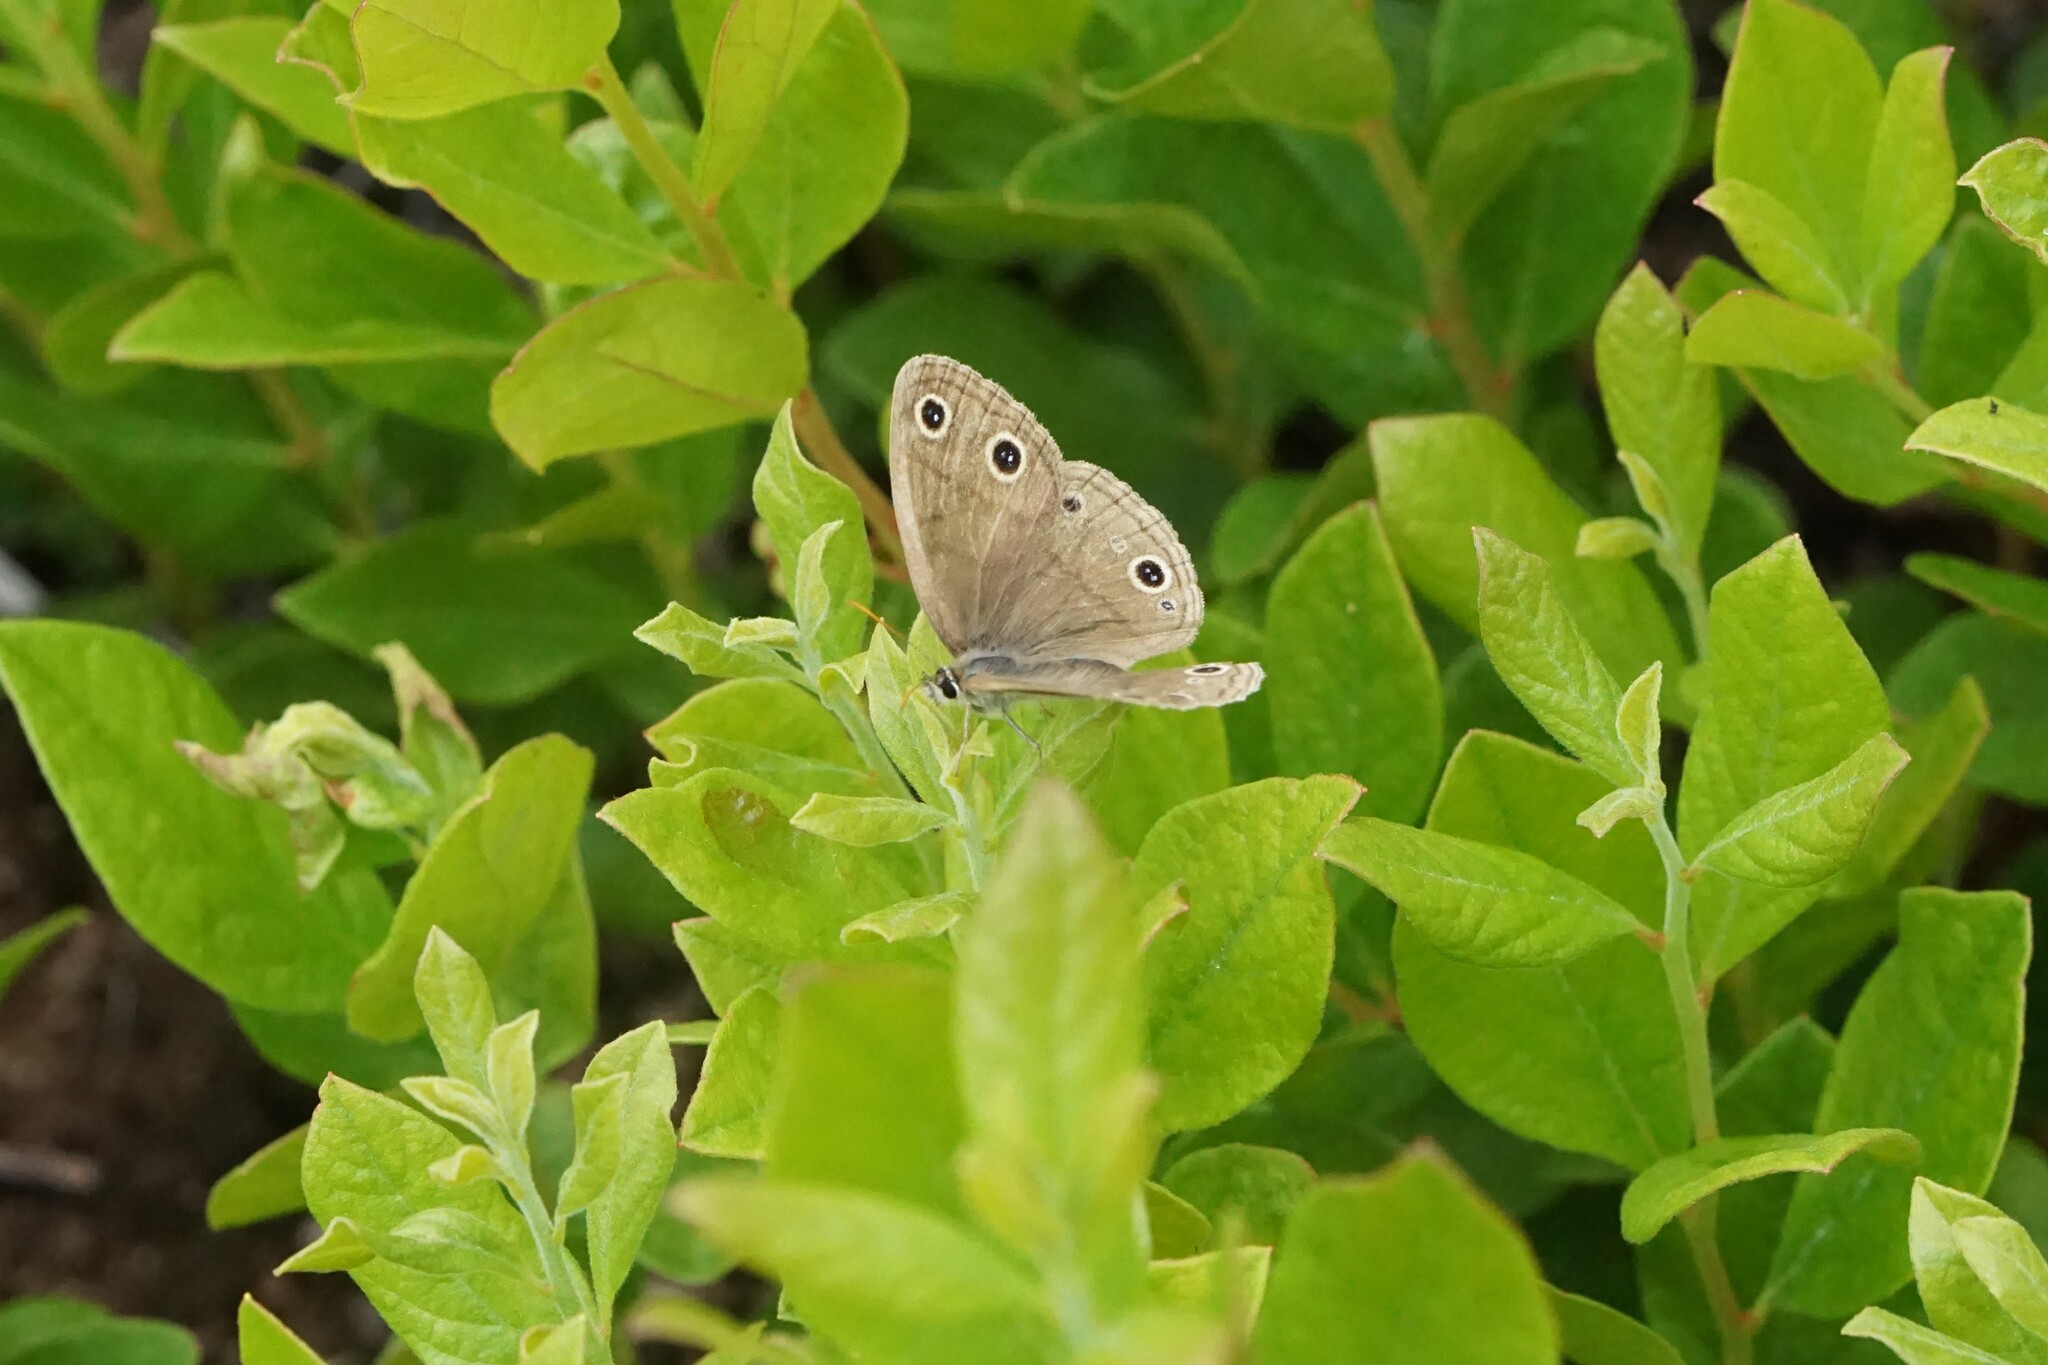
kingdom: Animalia
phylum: Arthropoda
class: Insecta
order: Lepidoptera
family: Nymphalidae
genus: Euptychia
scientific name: Euptychia cymela
